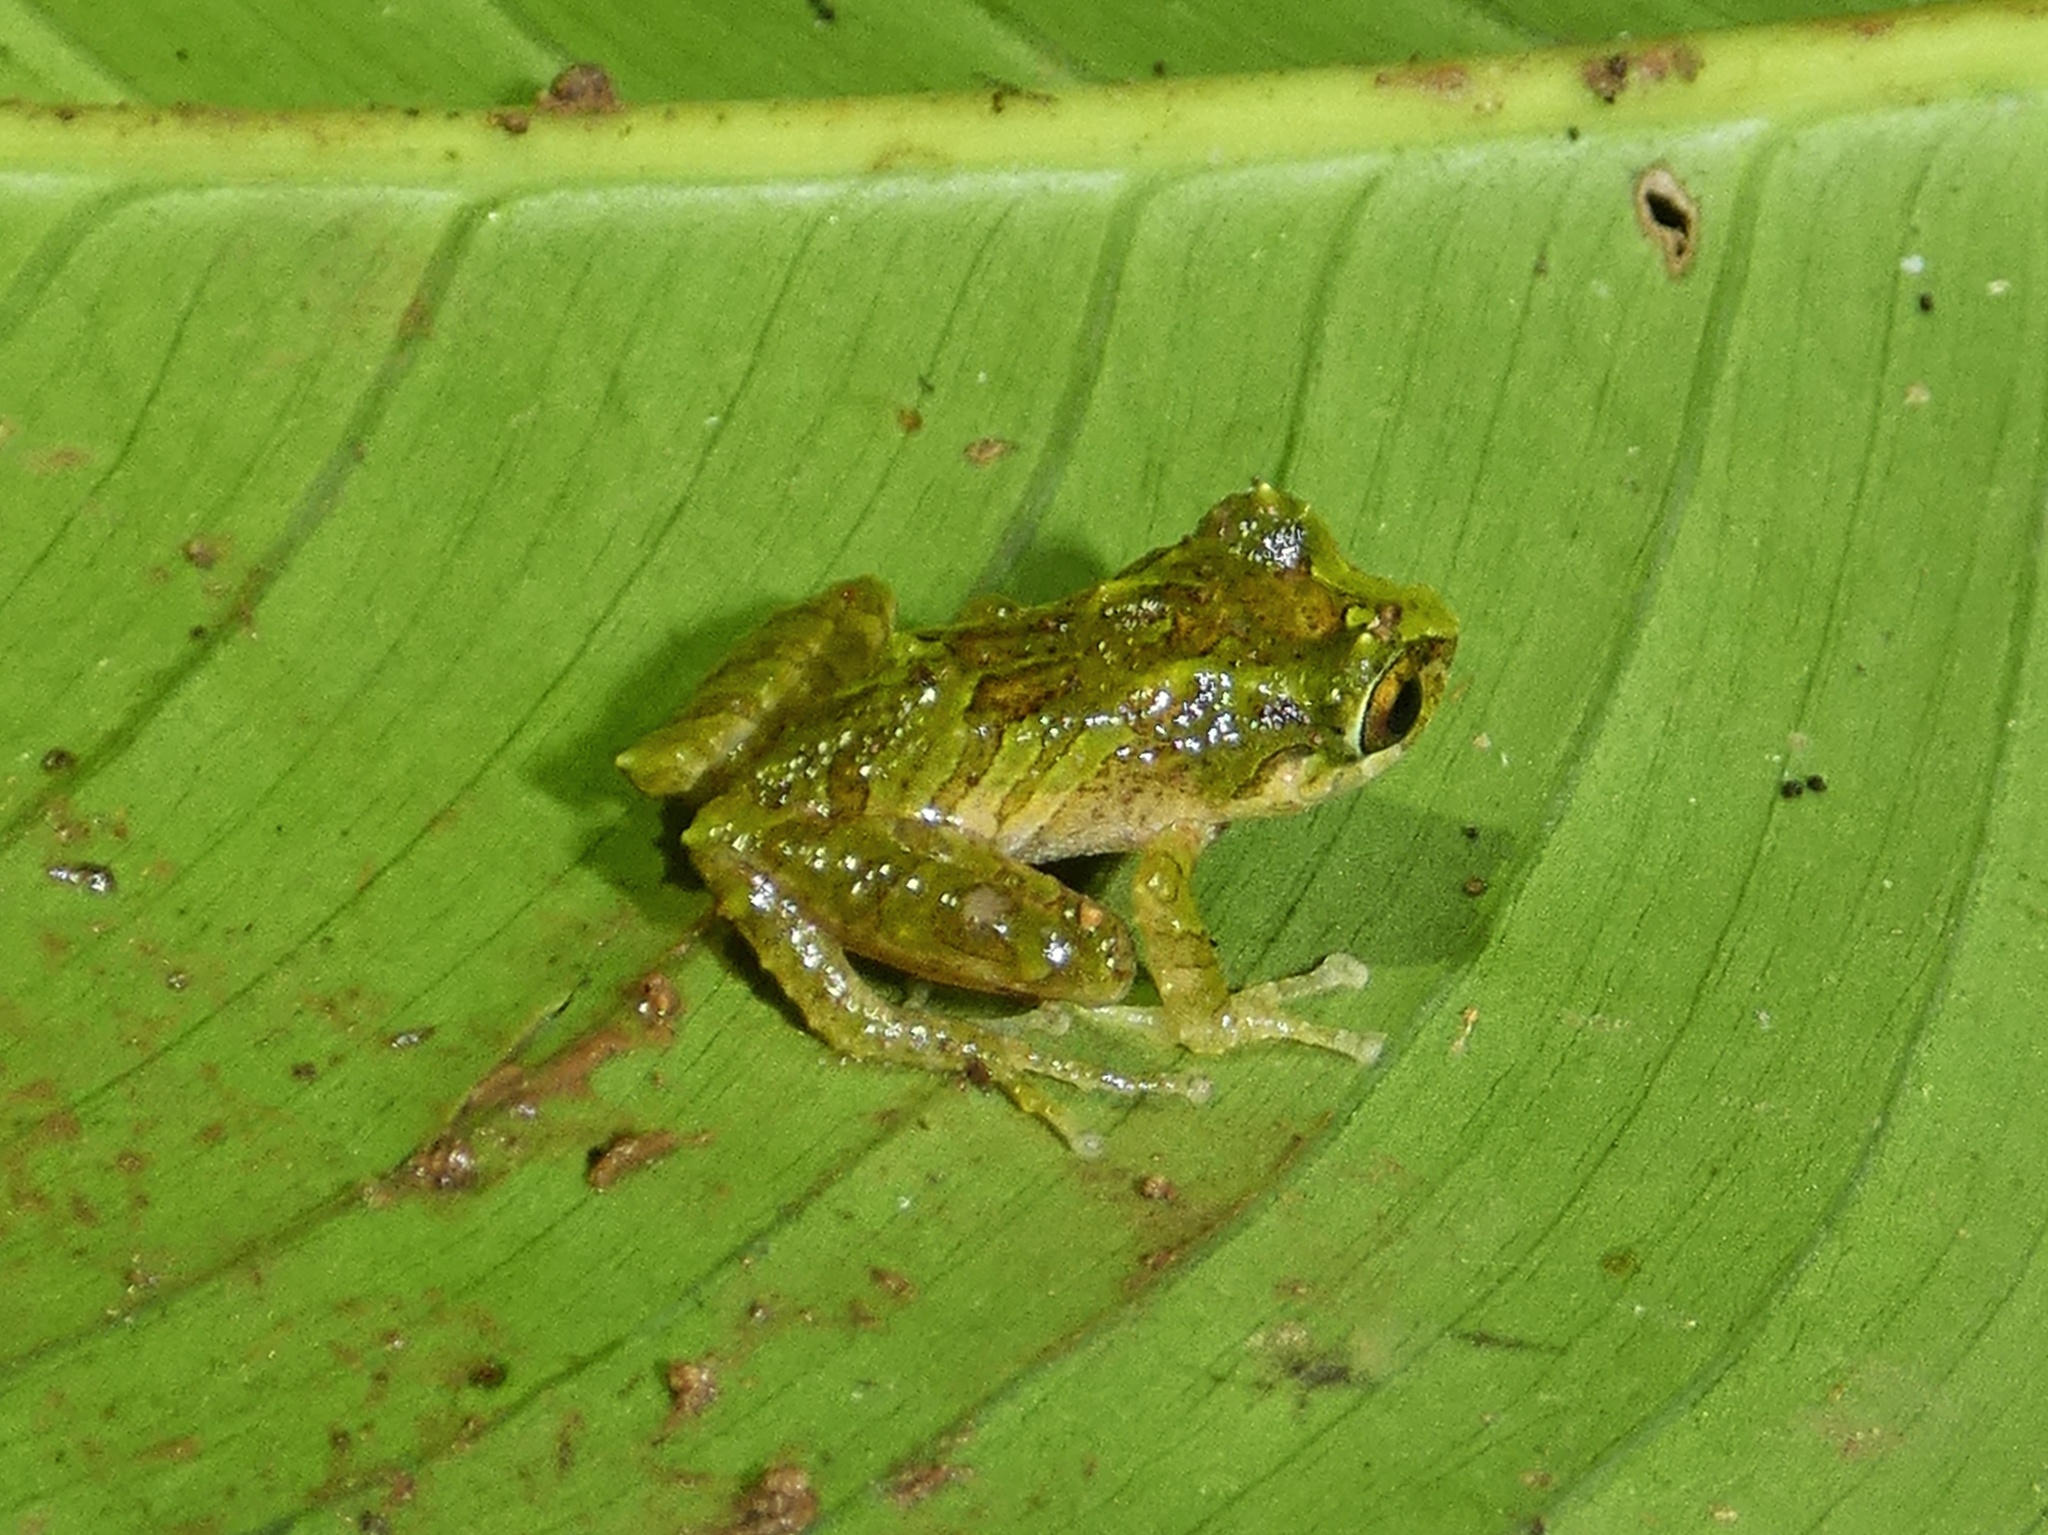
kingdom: Animalia
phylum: Chordata
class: Amphibia
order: Anura
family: Craugastoridae
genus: Pristimantis
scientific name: Pristimantis museosus
